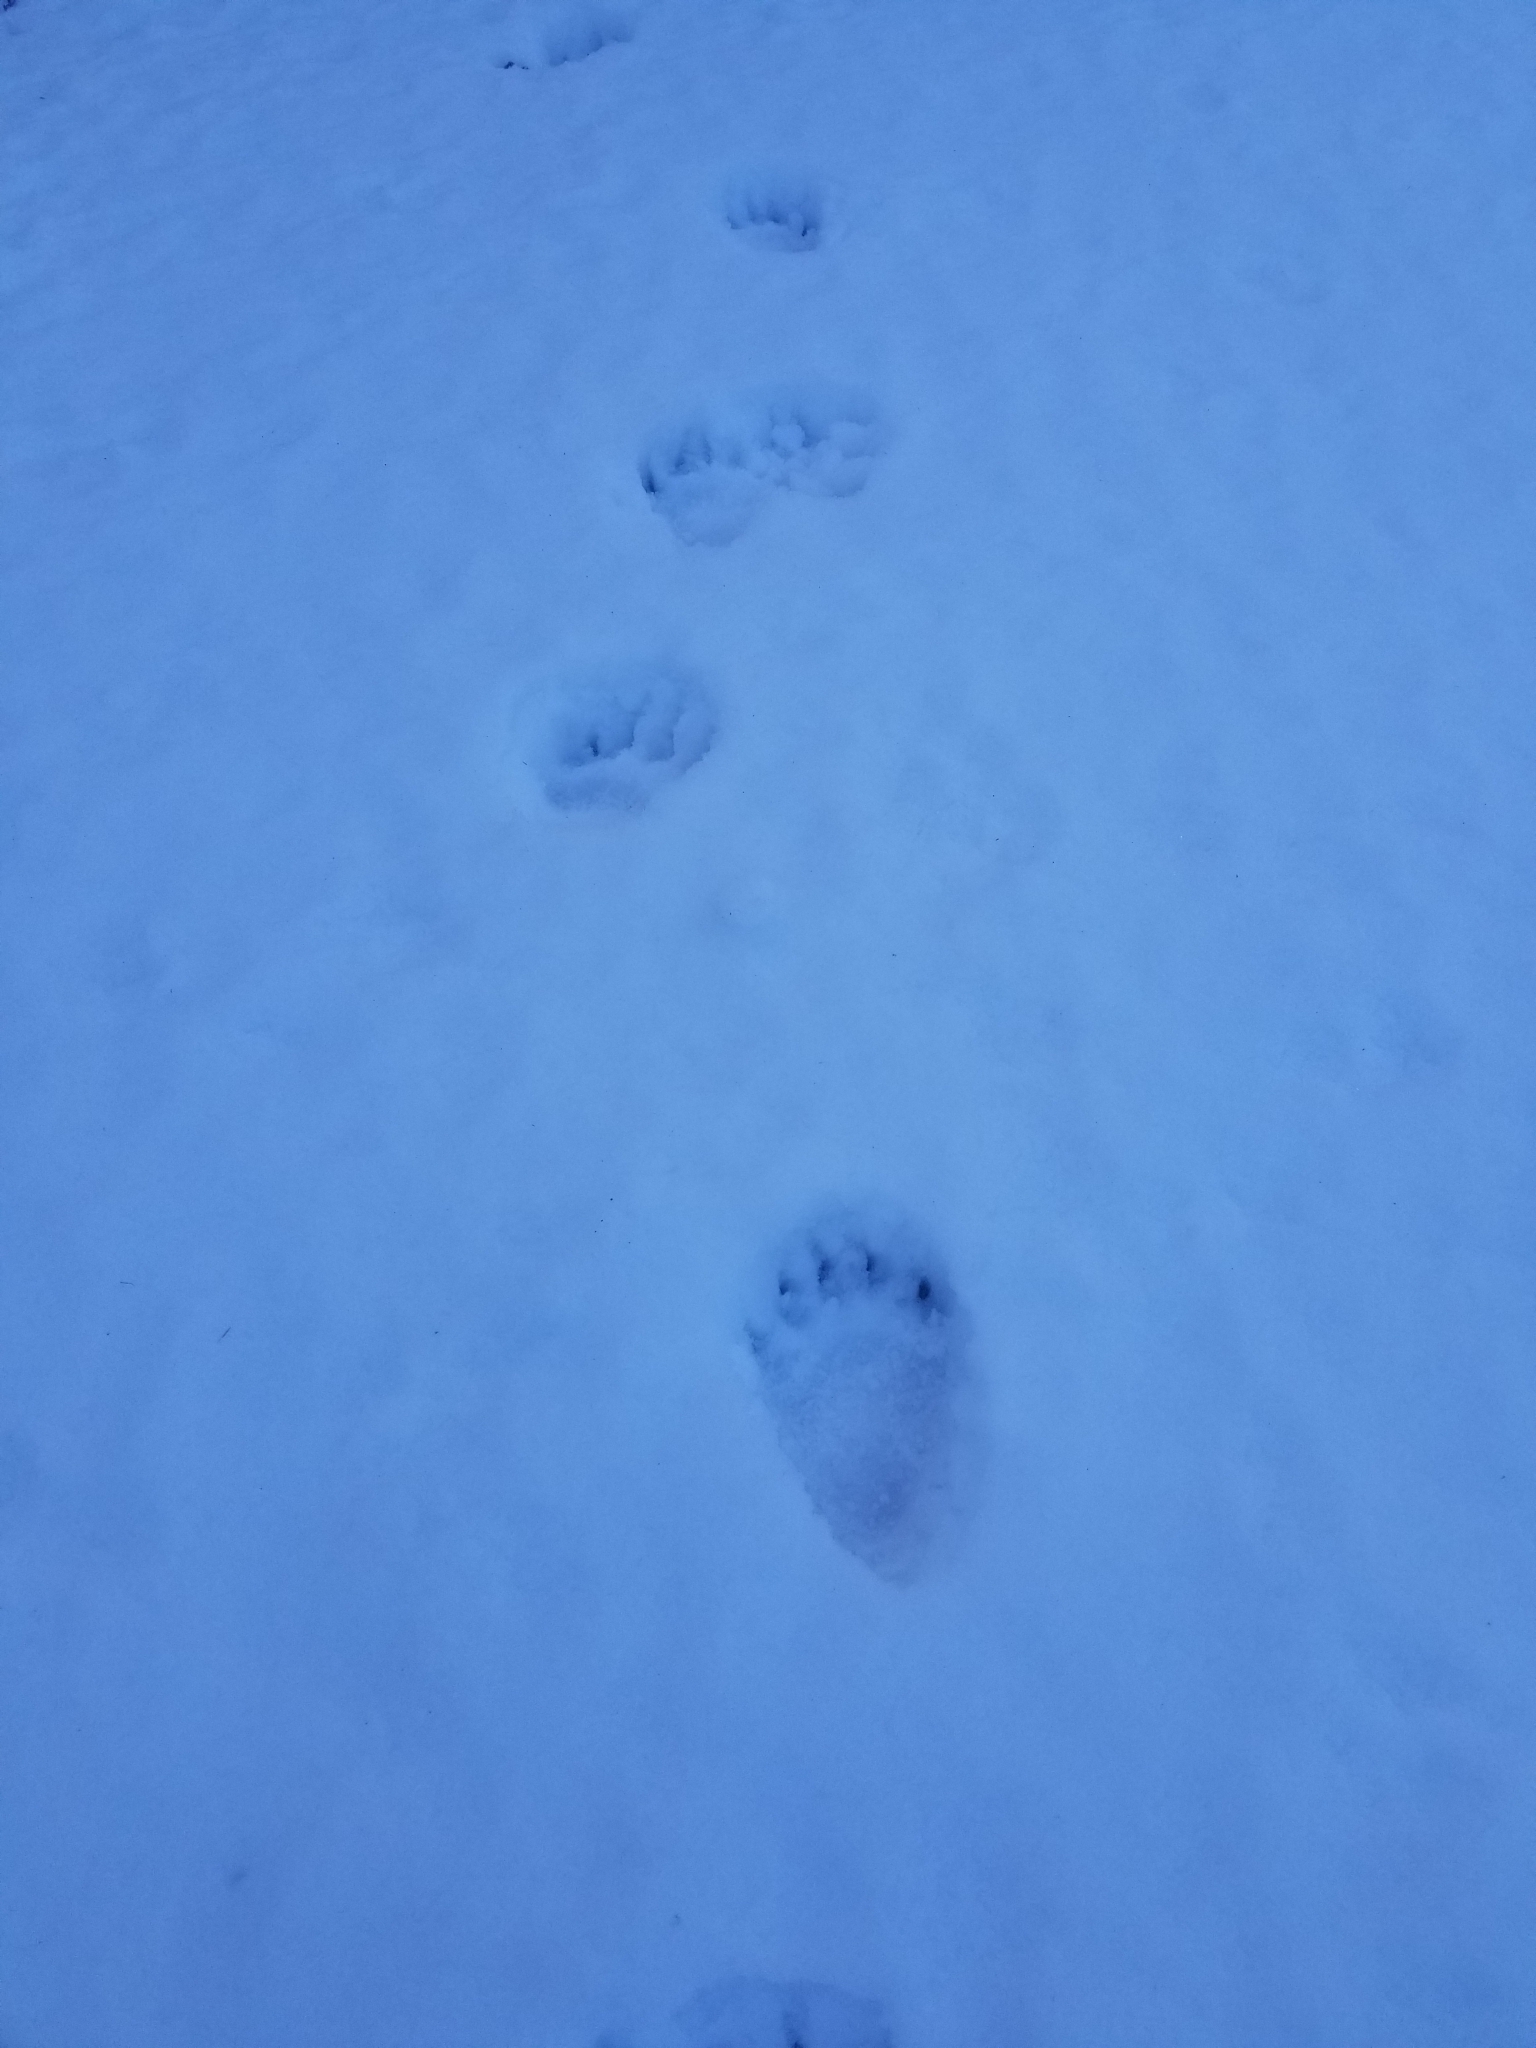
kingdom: Animalia
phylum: Chordata
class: Mammalia
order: Carnivora
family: Ursidae
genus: Ursus
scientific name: Ursus americanus
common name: American black bear
